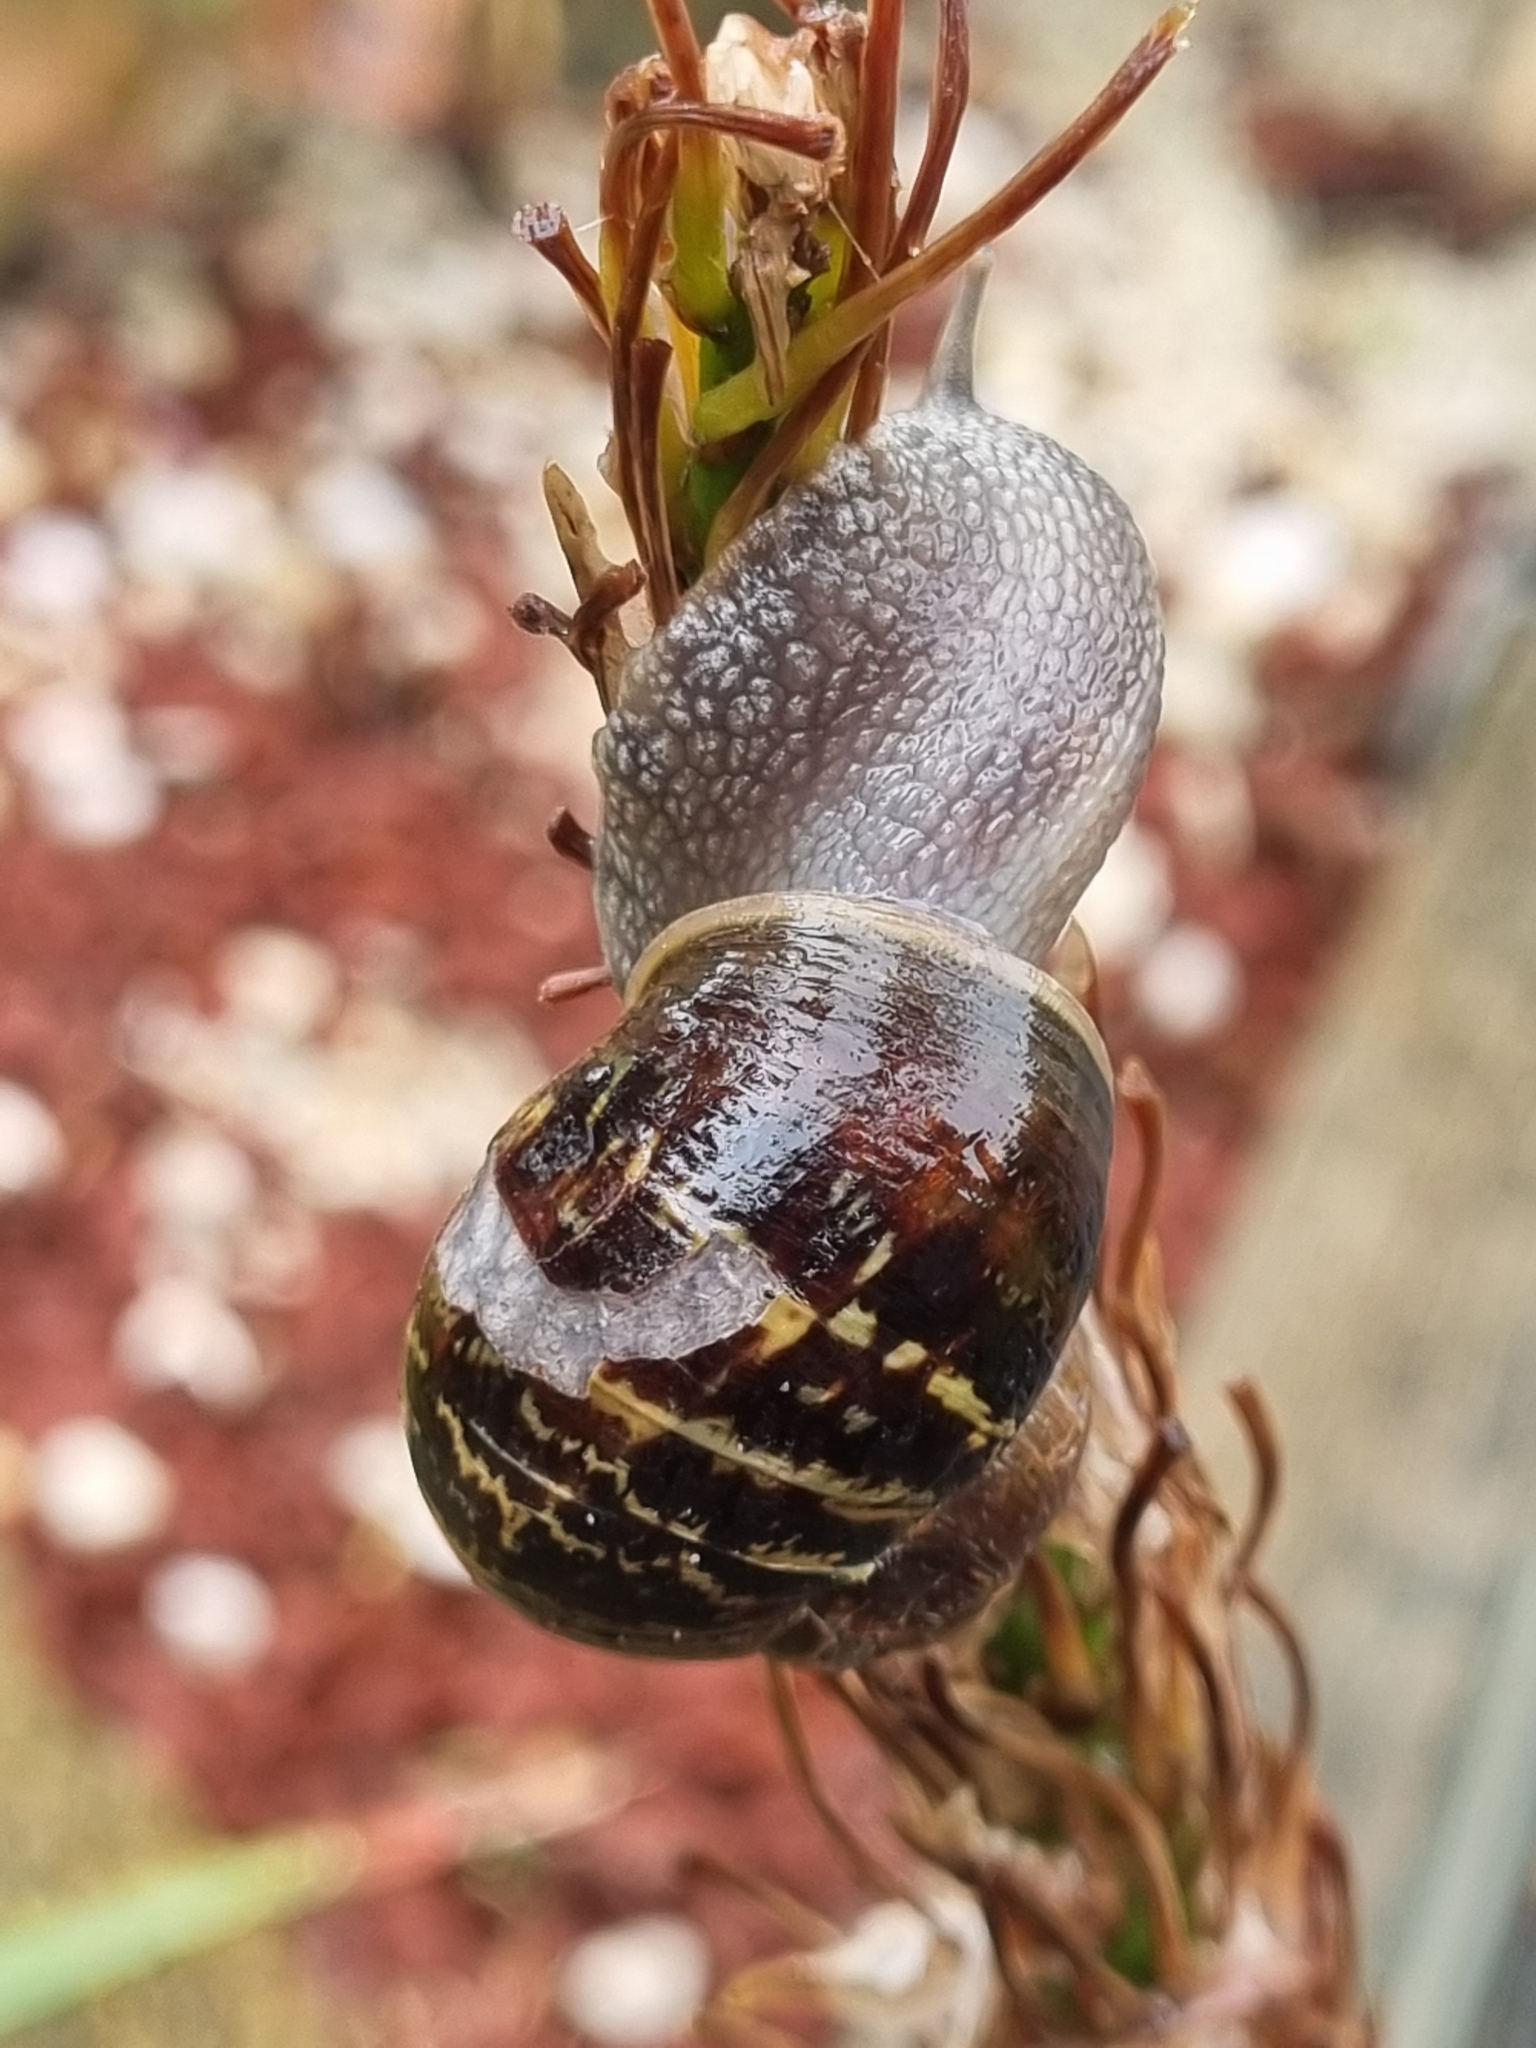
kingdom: Animalia
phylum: Mollusca
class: Gastropoda
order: Stylommatophora
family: Helicidae
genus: Cornu
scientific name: Cornu aspersum
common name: Brown garden snail
